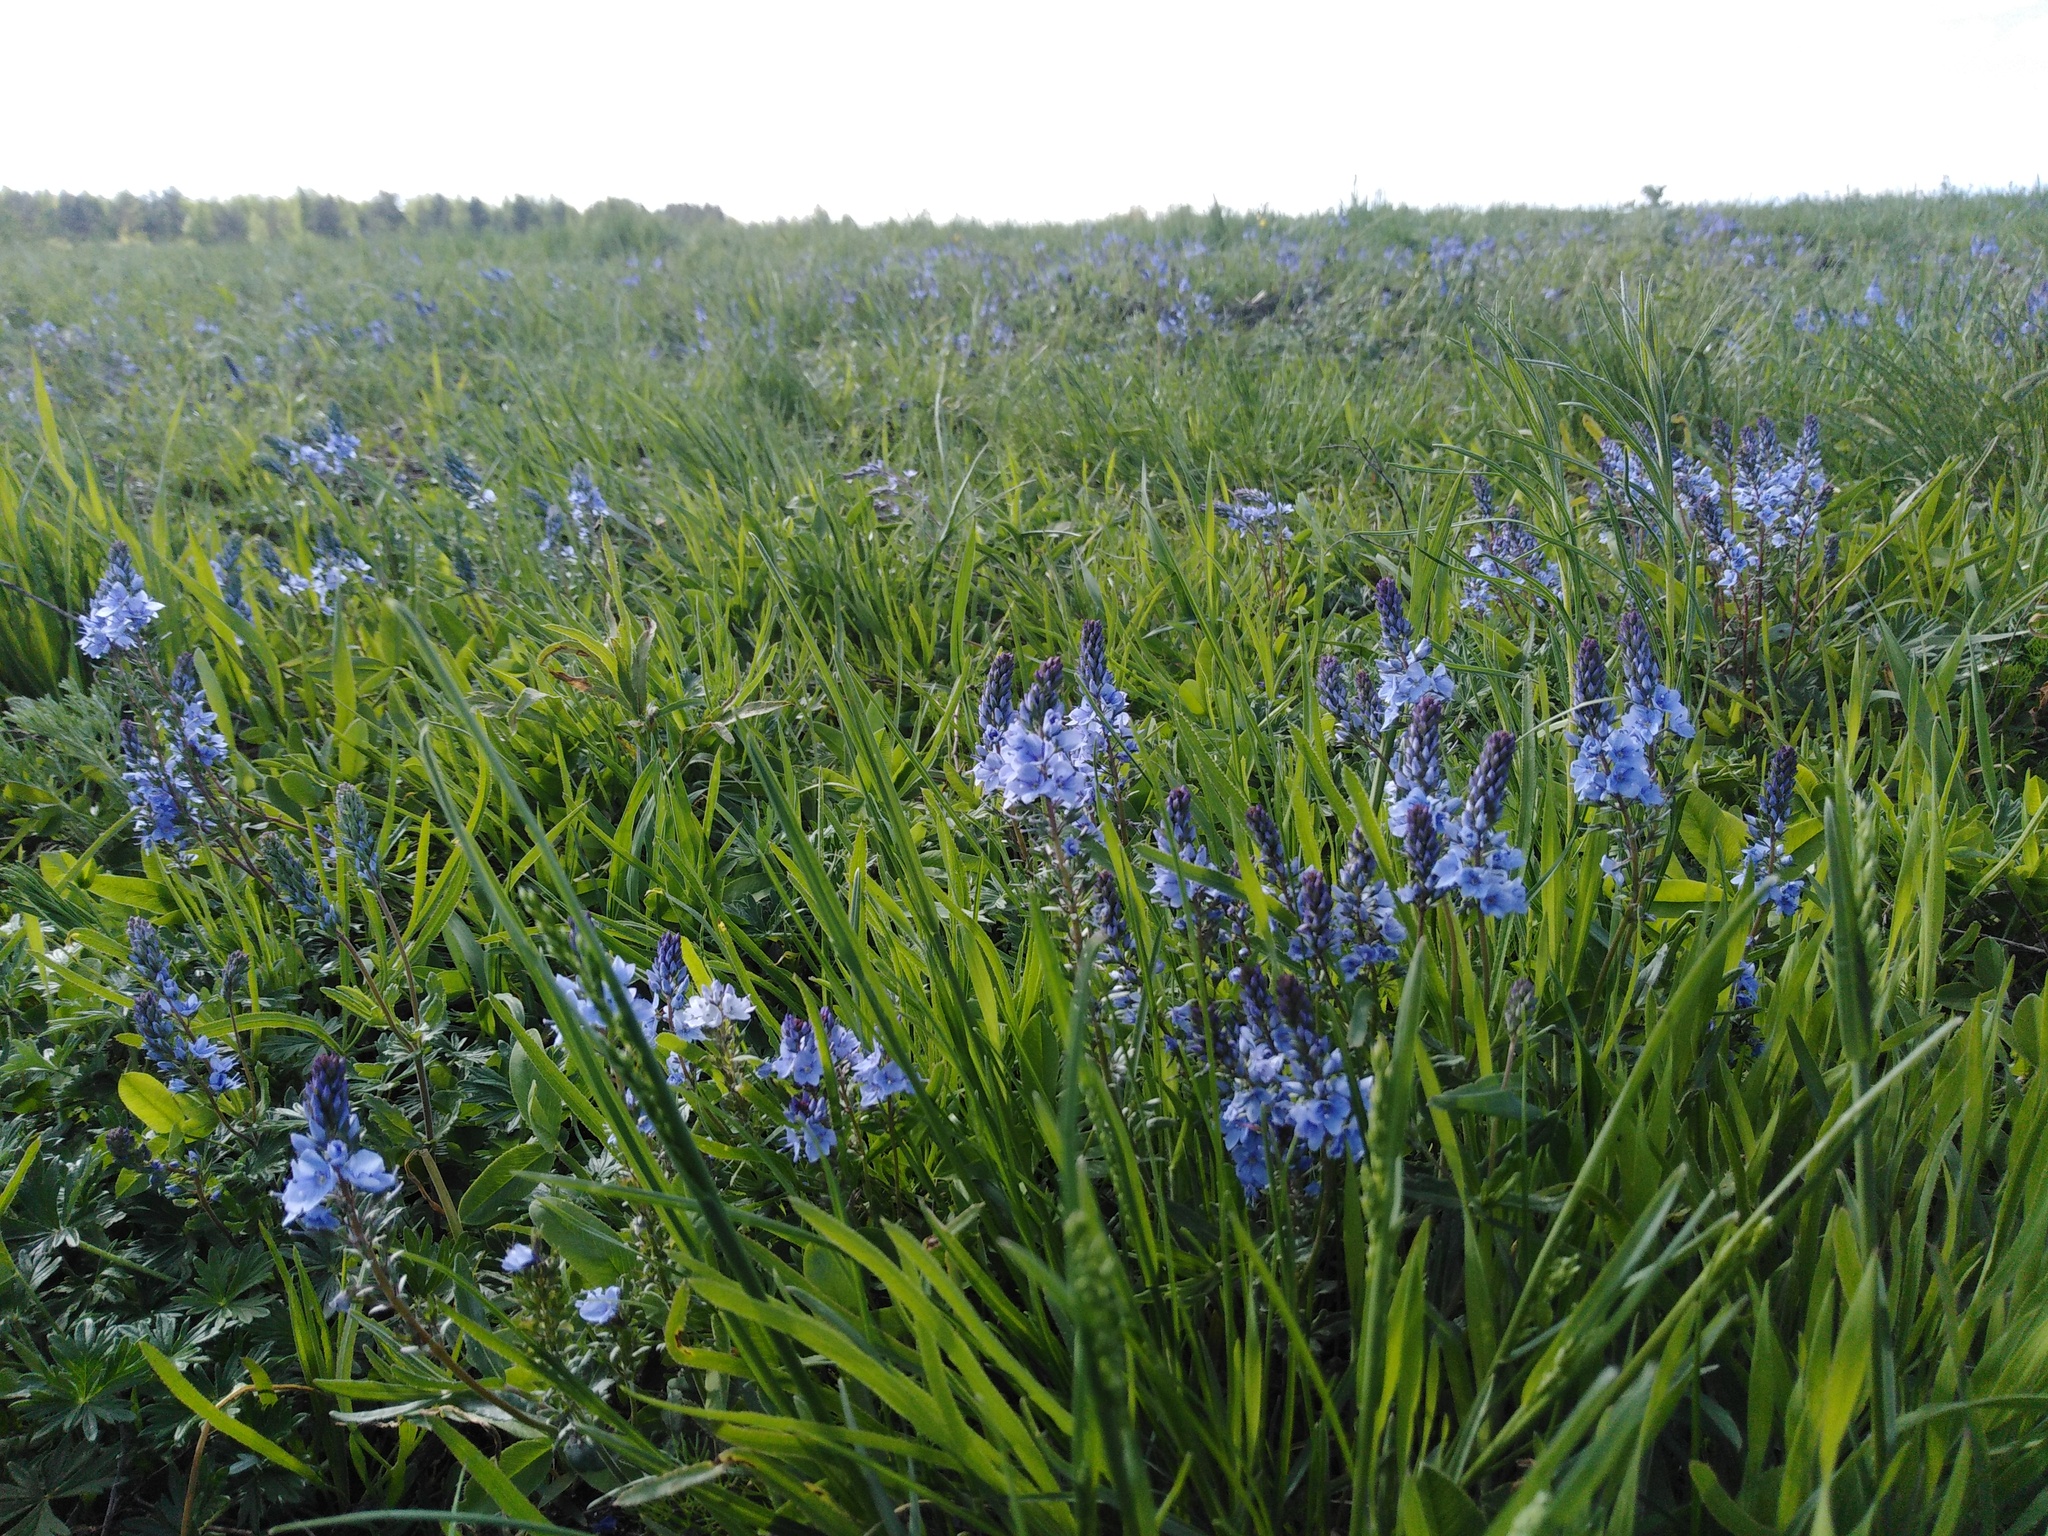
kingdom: Plantae
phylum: Tracheophyta
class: Magnoliopsida
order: Lamiales
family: Plantaginaceae
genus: Veronica
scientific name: Veronica prostrata
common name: Prostrate speedwell
